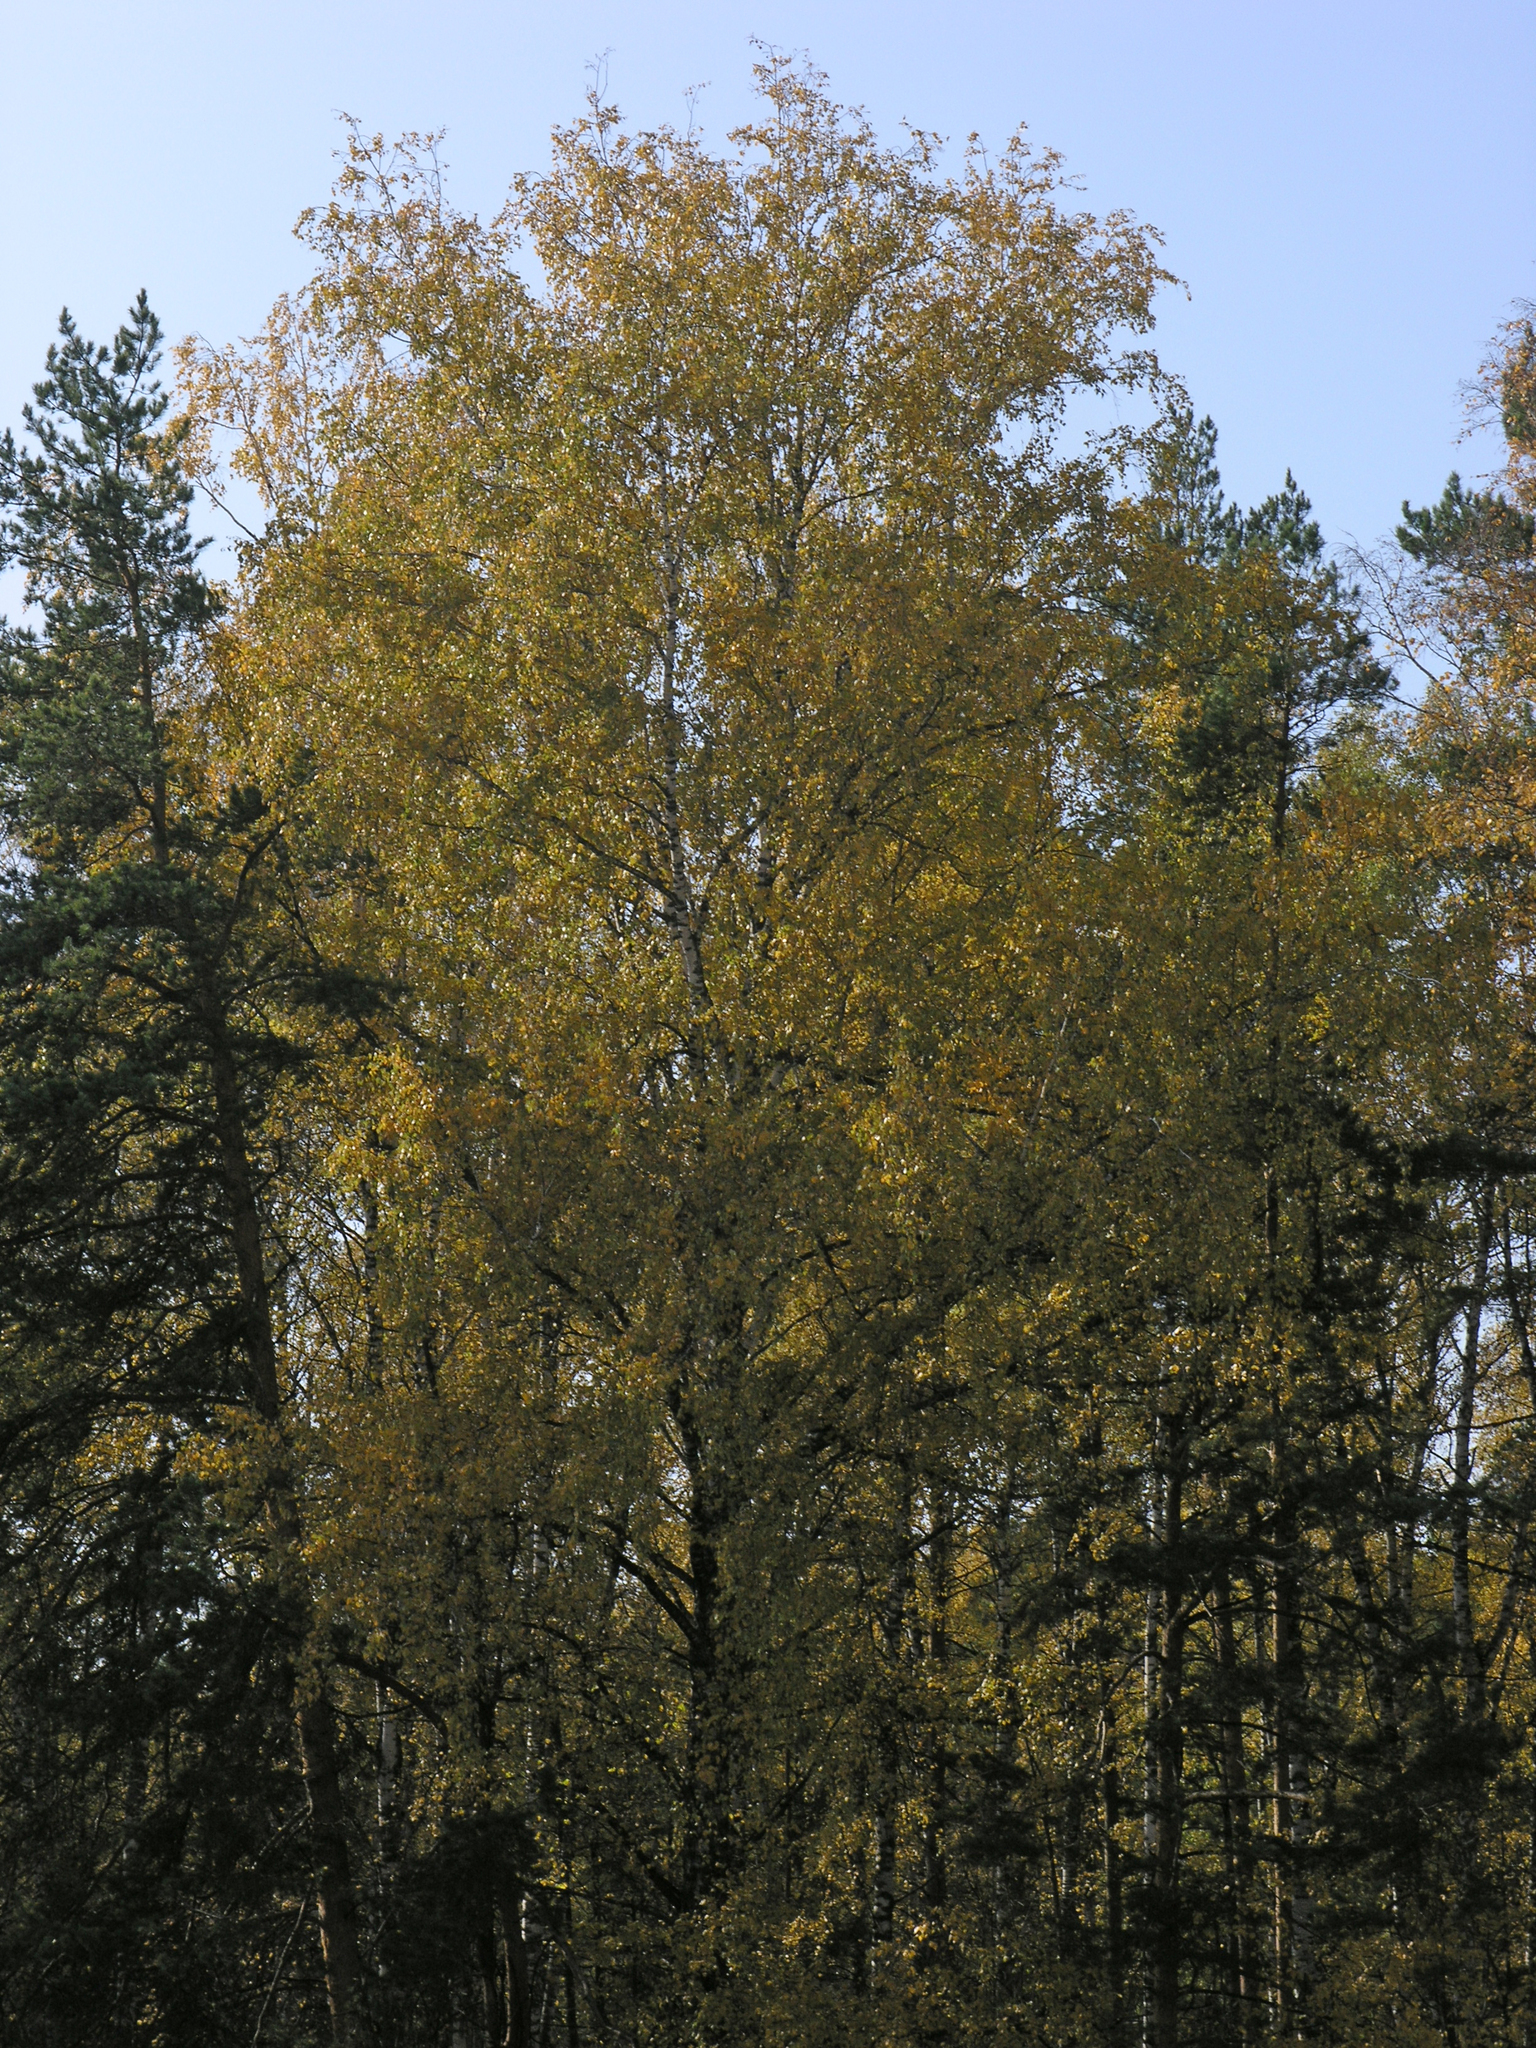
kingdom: Plantae
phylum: Tracheophyta
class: Magnoliopsida
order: Fagales
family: Betulaceae
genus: Betula
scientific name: Betula pendula
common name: Silver birch
